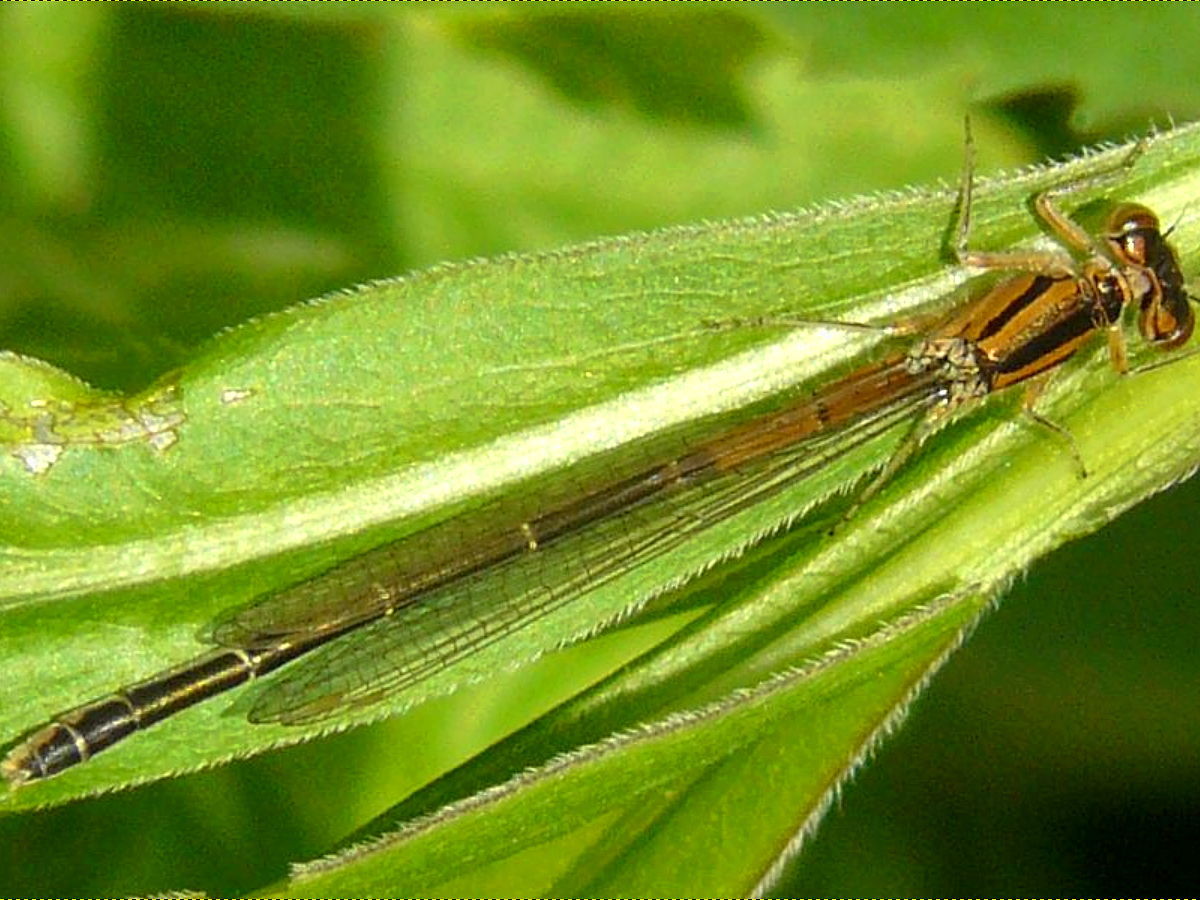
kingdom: Animalia
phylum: Arthropoda
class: Insecta
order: Odonata
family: Coenagrionidae
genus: Ischnura
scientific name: Ischnura verticalis
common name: Eastern forktail
